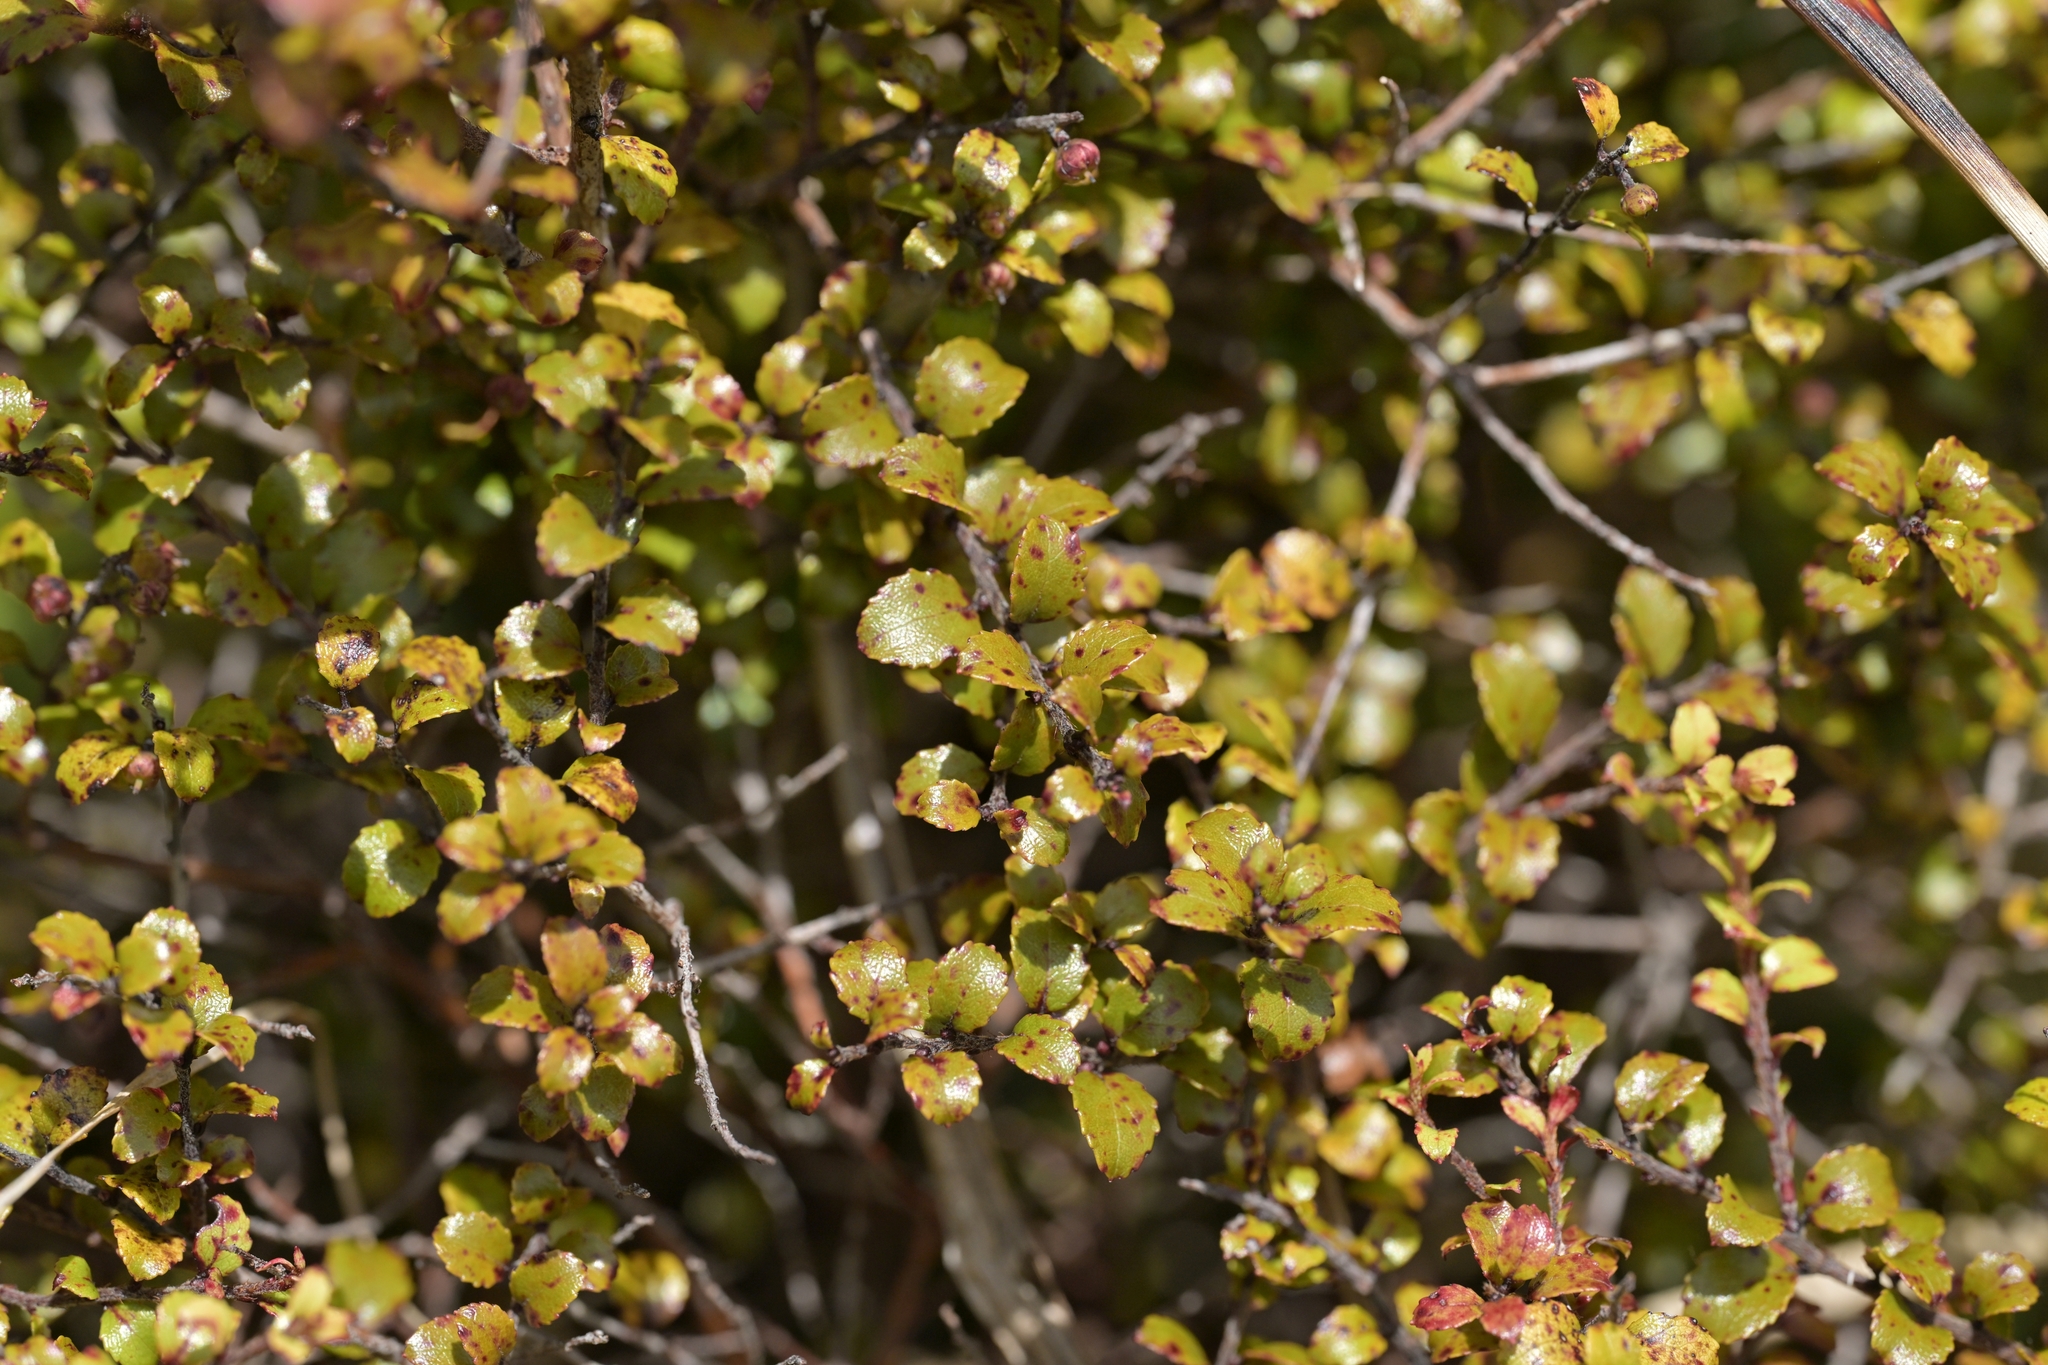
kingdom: Plantae
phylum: Tracheophyta
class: Magnoliopsida
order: Ericales
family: Ericaceae
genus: Gaultheria
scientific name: Gaultheria antipoda
